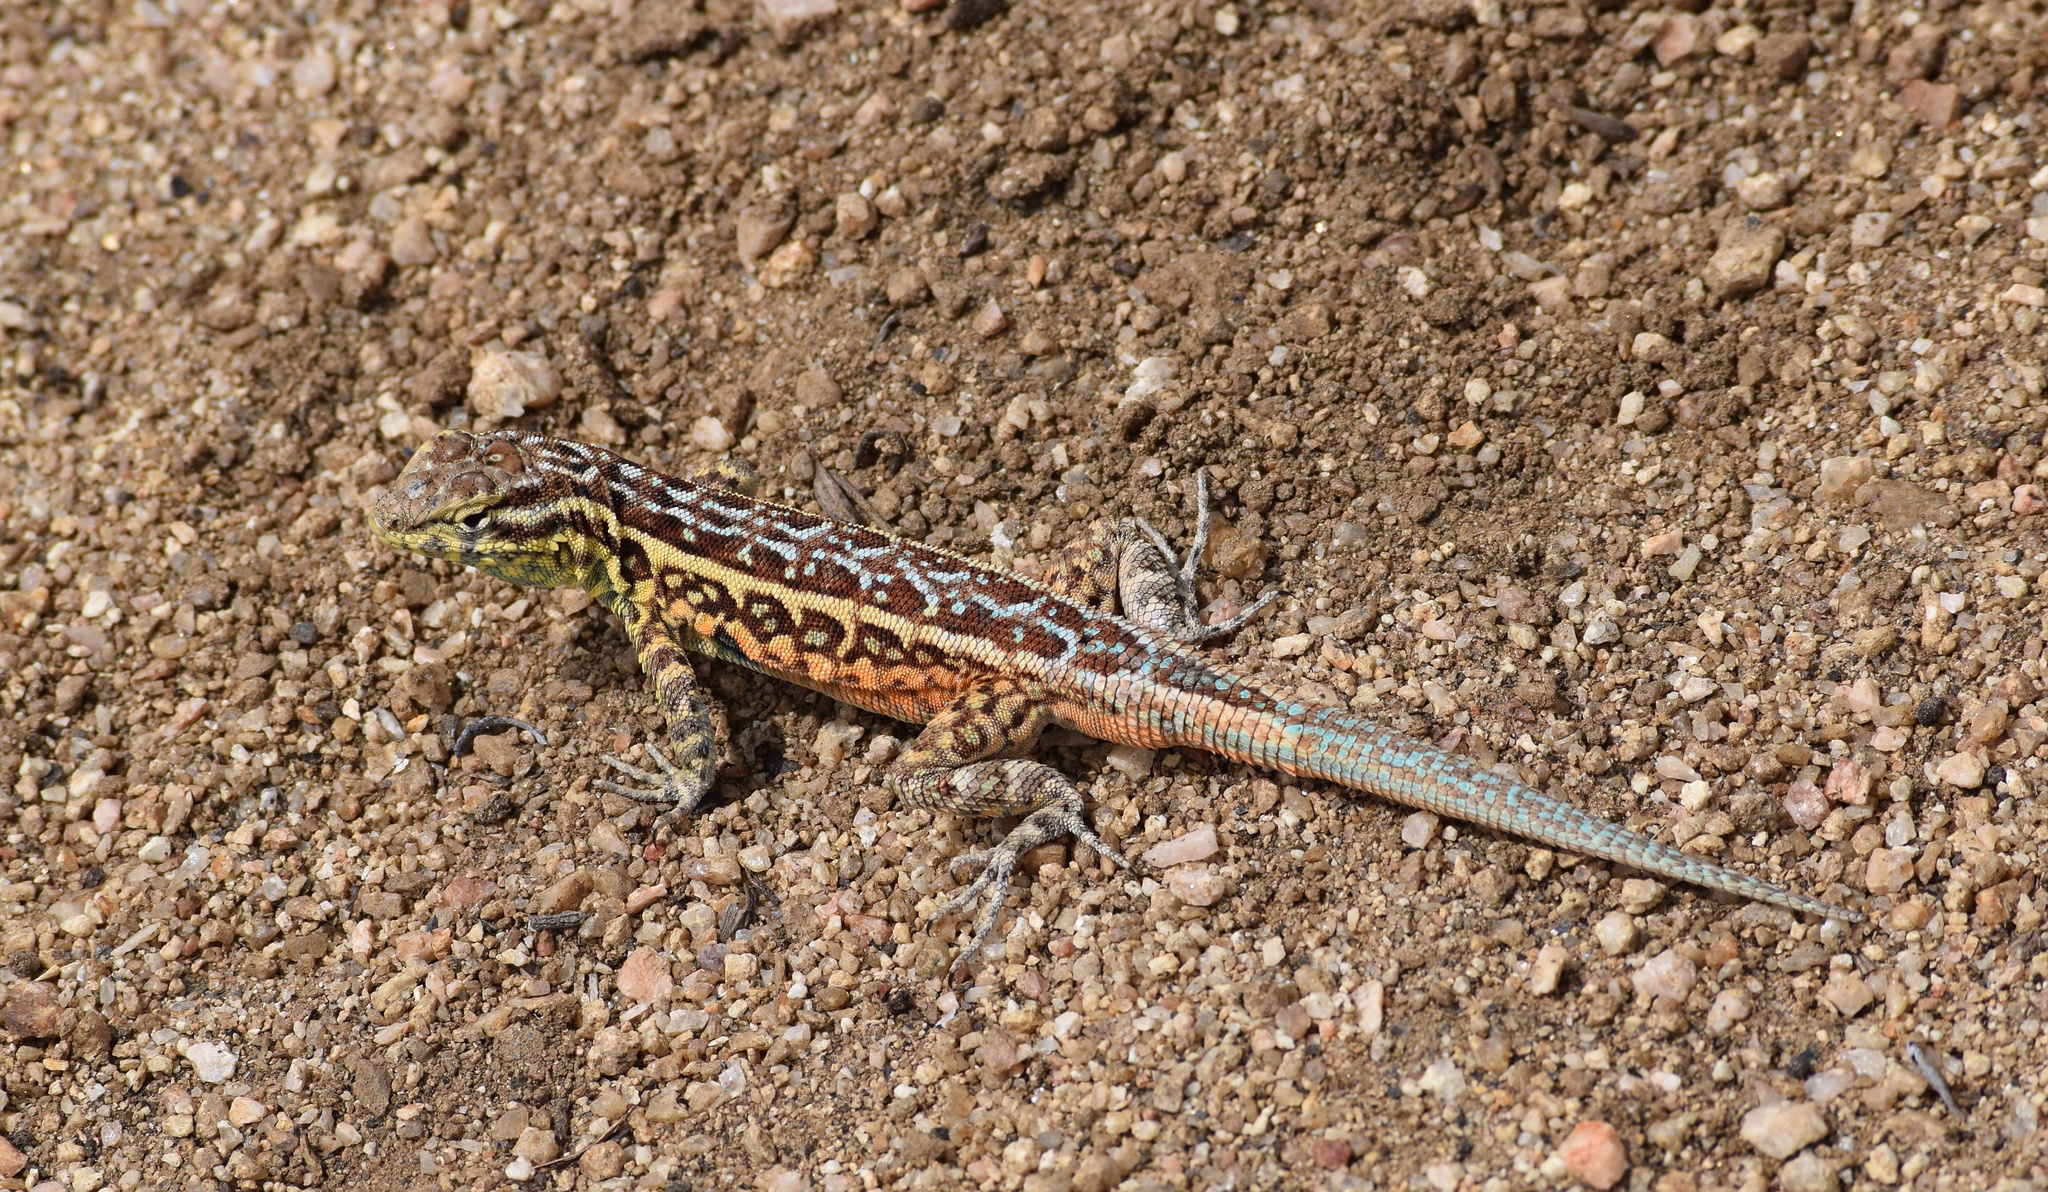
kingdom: Animalia
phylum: Chordata
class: Squamata
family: Phrynosomatidae
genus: Uta
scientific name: Uta stansburiana
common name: Side-blotched lizard
